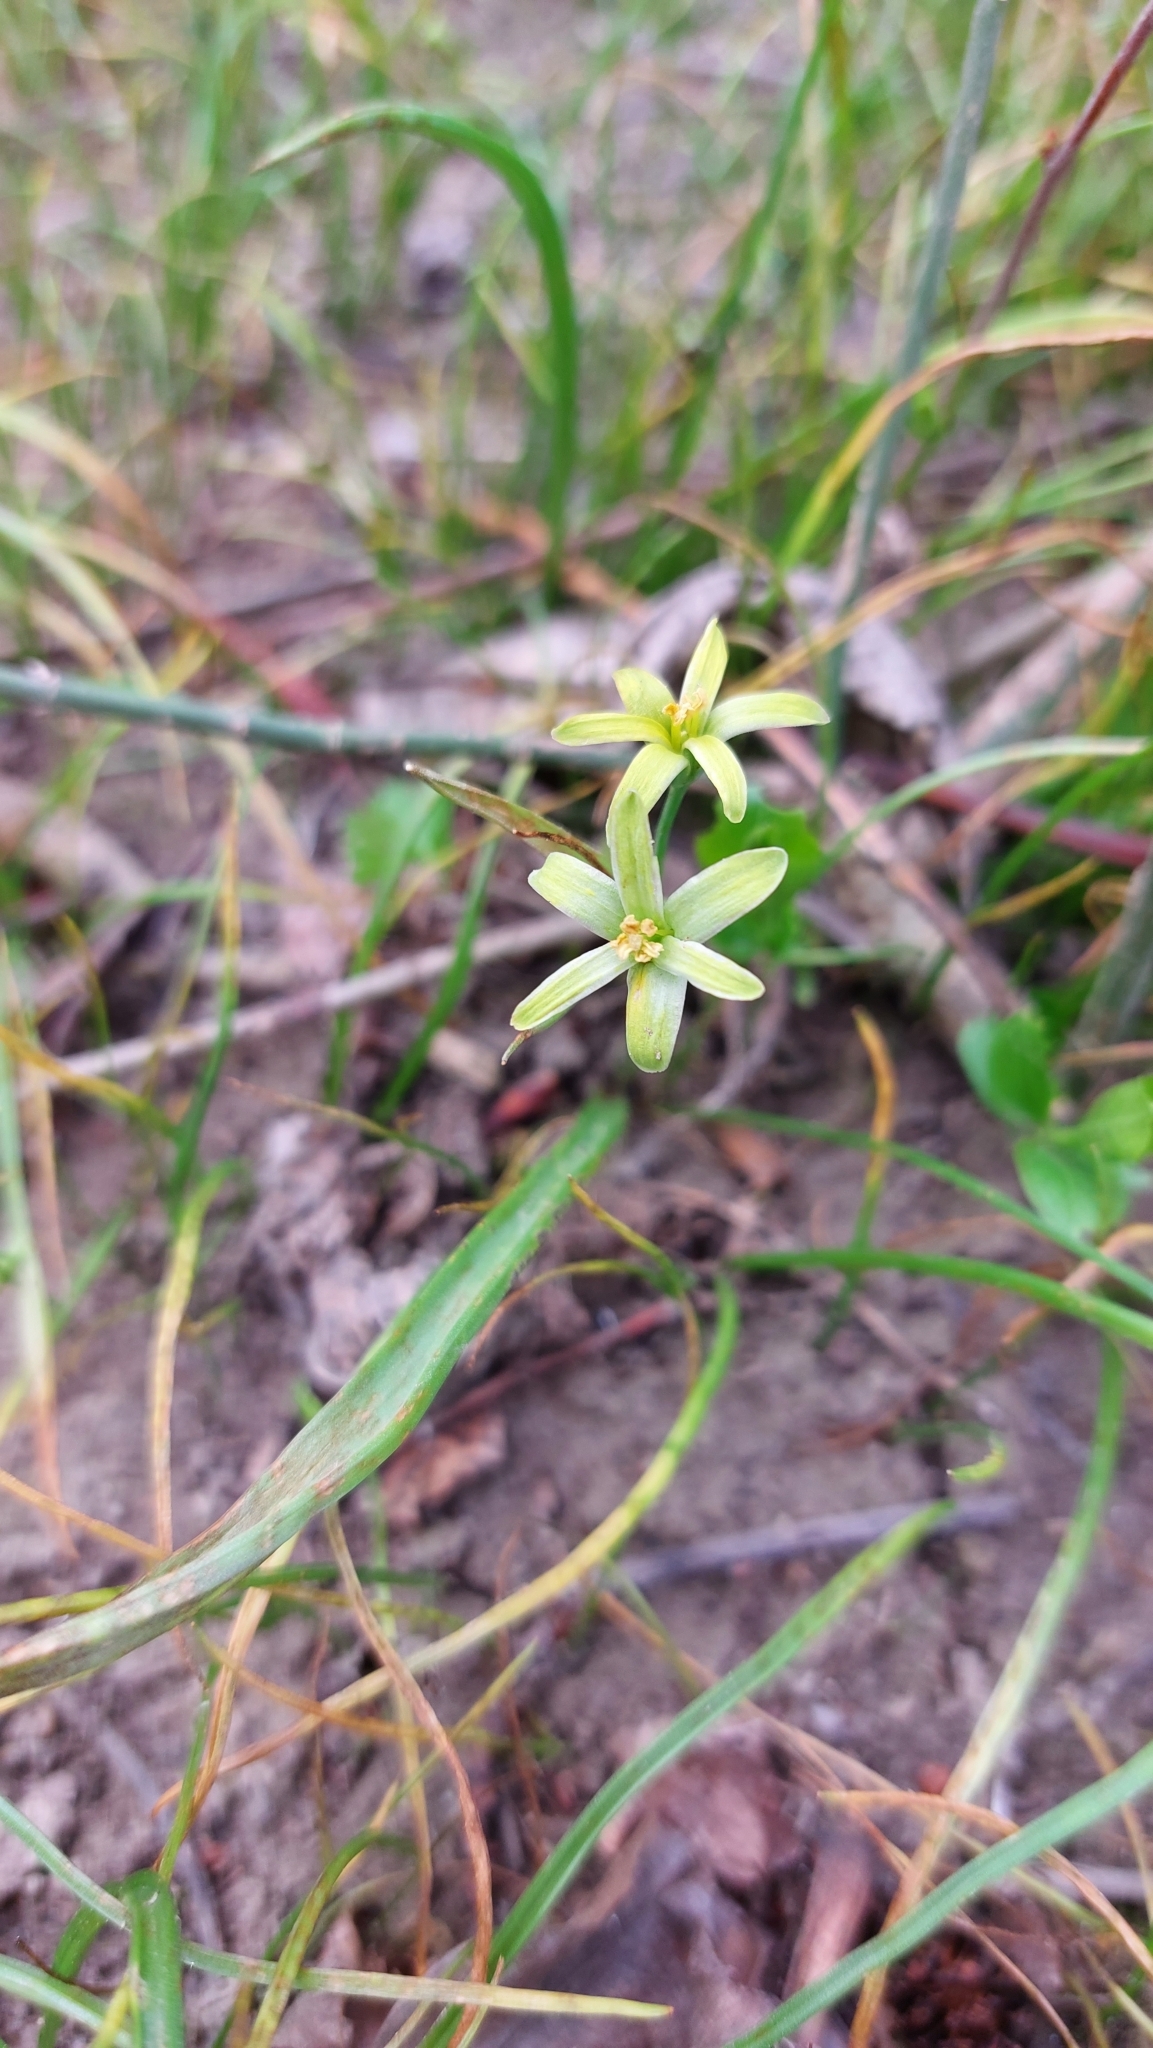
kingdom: Plantae
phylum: Tracheophyta
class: Liliopsida
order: Liliales
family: Liliaceae
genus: Gagea
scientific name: Gagea lutea
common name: Yellow star-of-bethlehem
